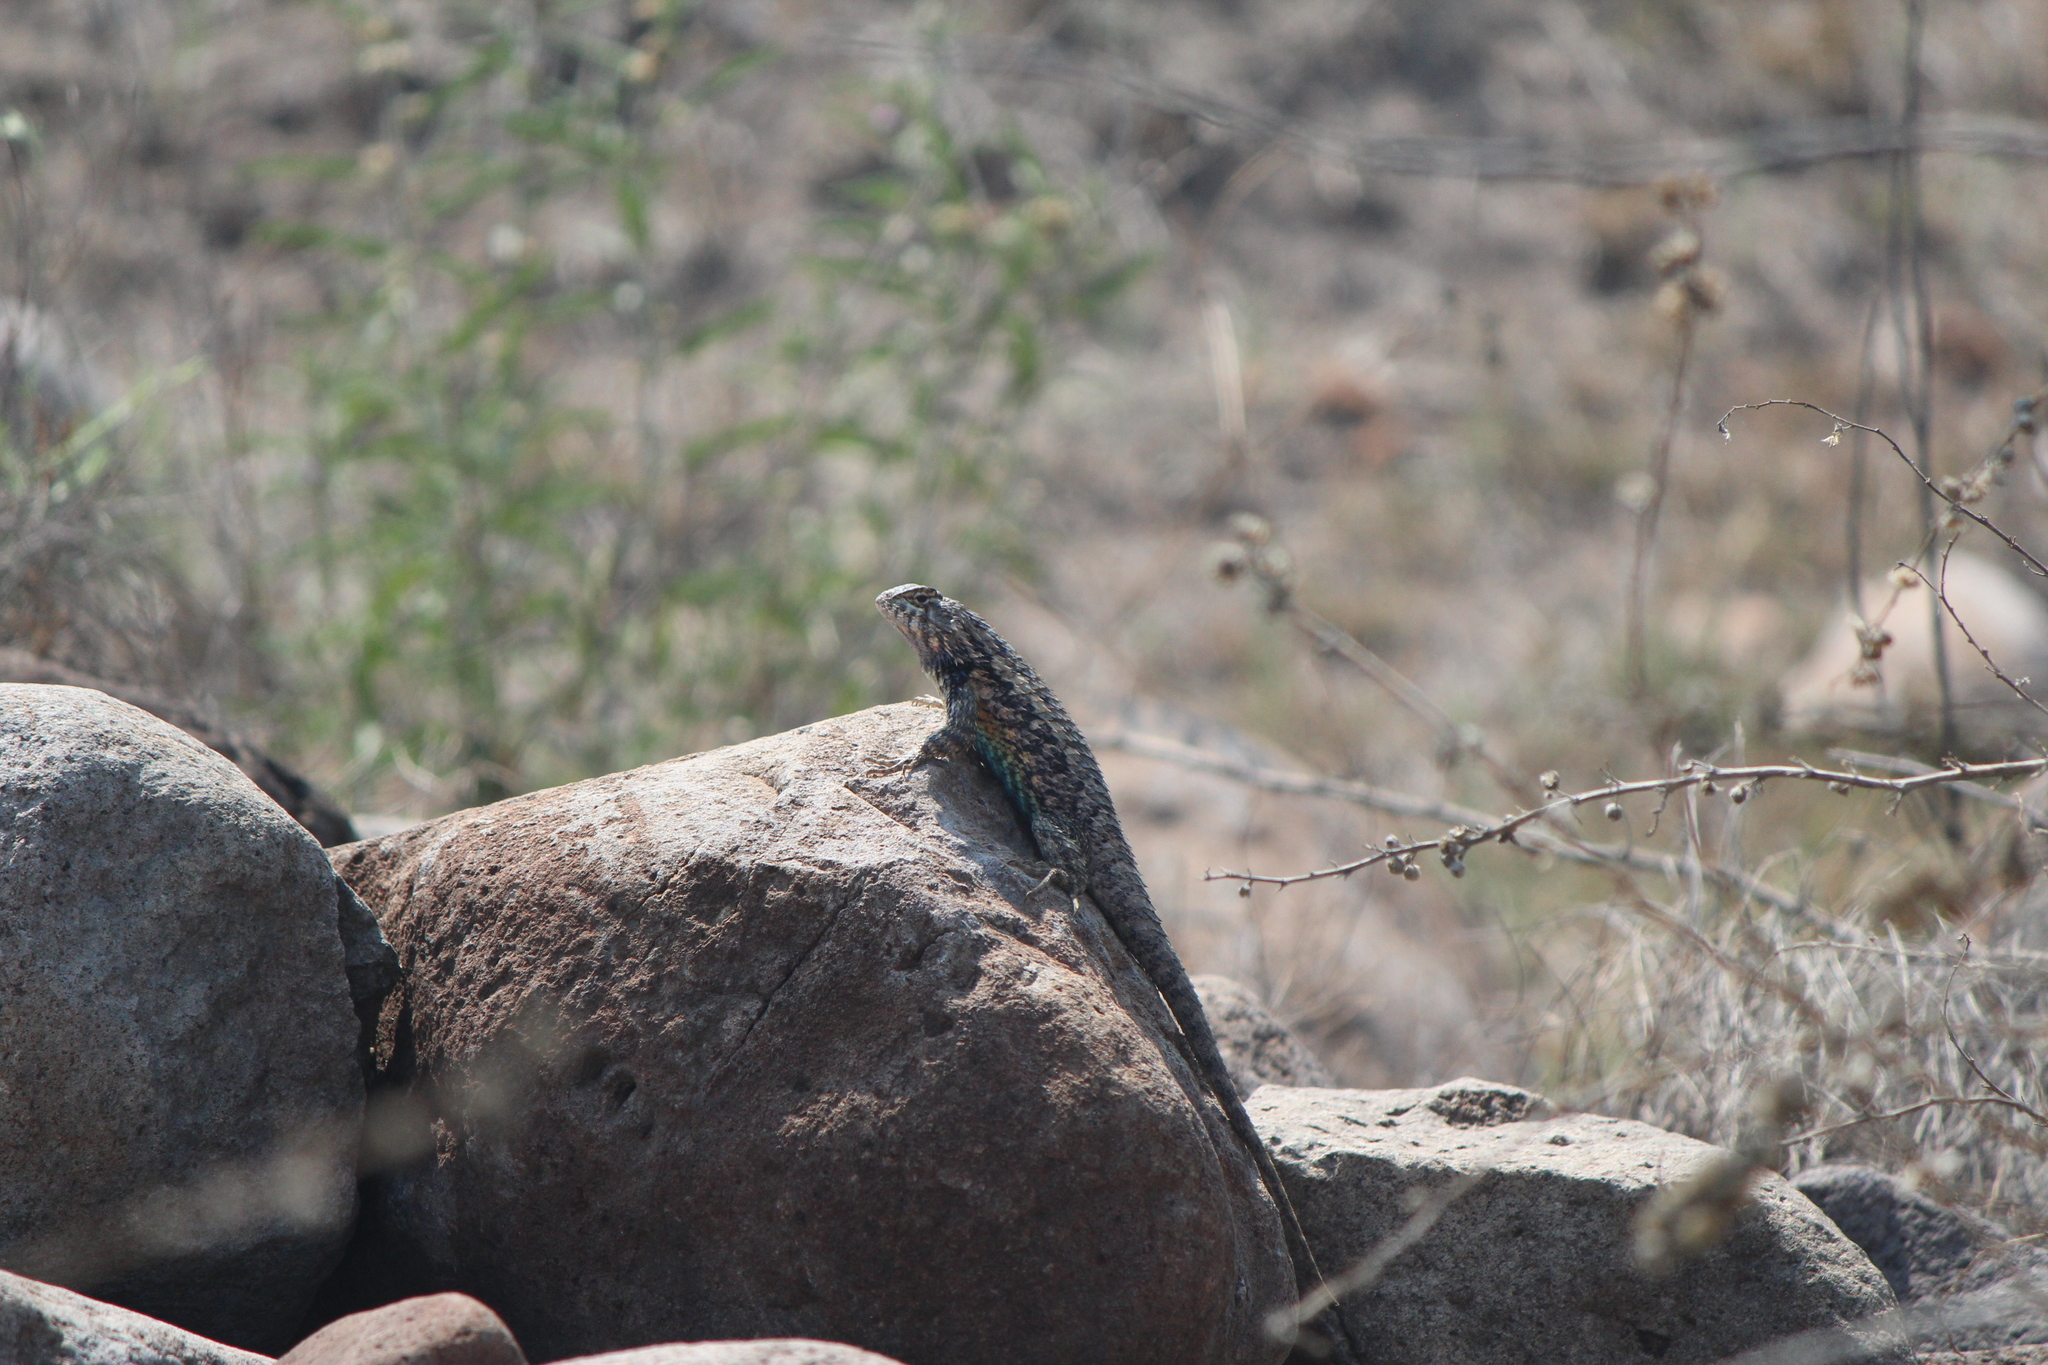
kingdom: Animalia
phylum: Chordata
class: Squamata
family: Phrynosomatidae
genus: Sceloporus
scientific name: Sceloporus spinosus
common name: Blue-spotted spiny lizard [caeruleopunctatus]
